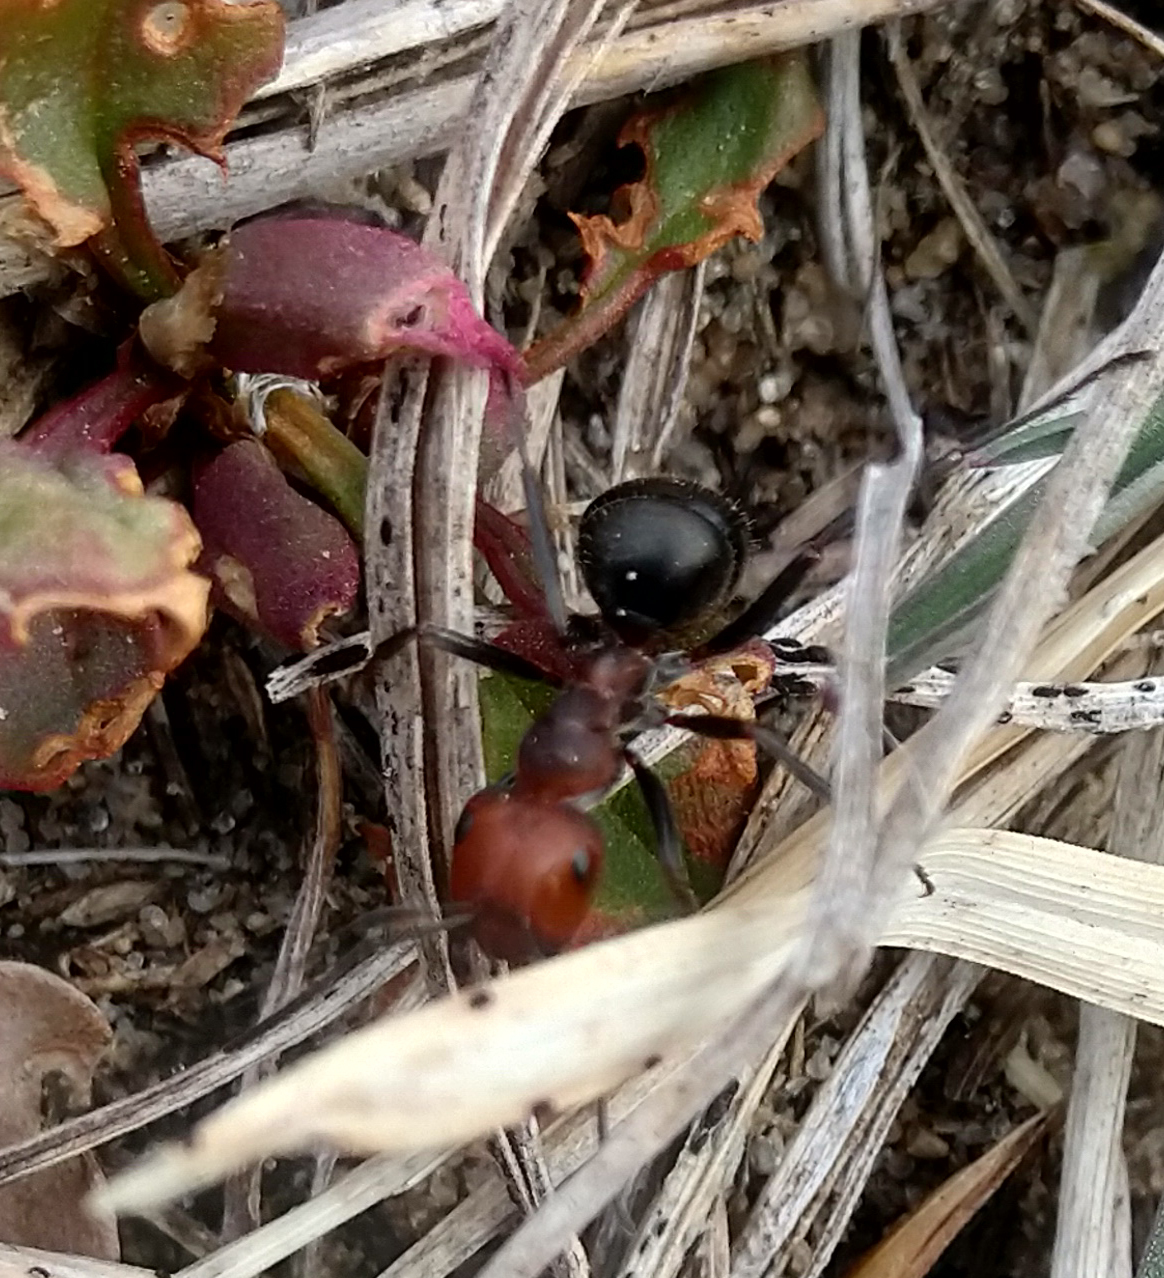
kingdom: Animalia
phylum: Arthropoda
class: Insecta
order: Hymenoptera
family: Formicidae
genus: Formica
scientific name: Formica obscuripes
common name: Western thatching ant
